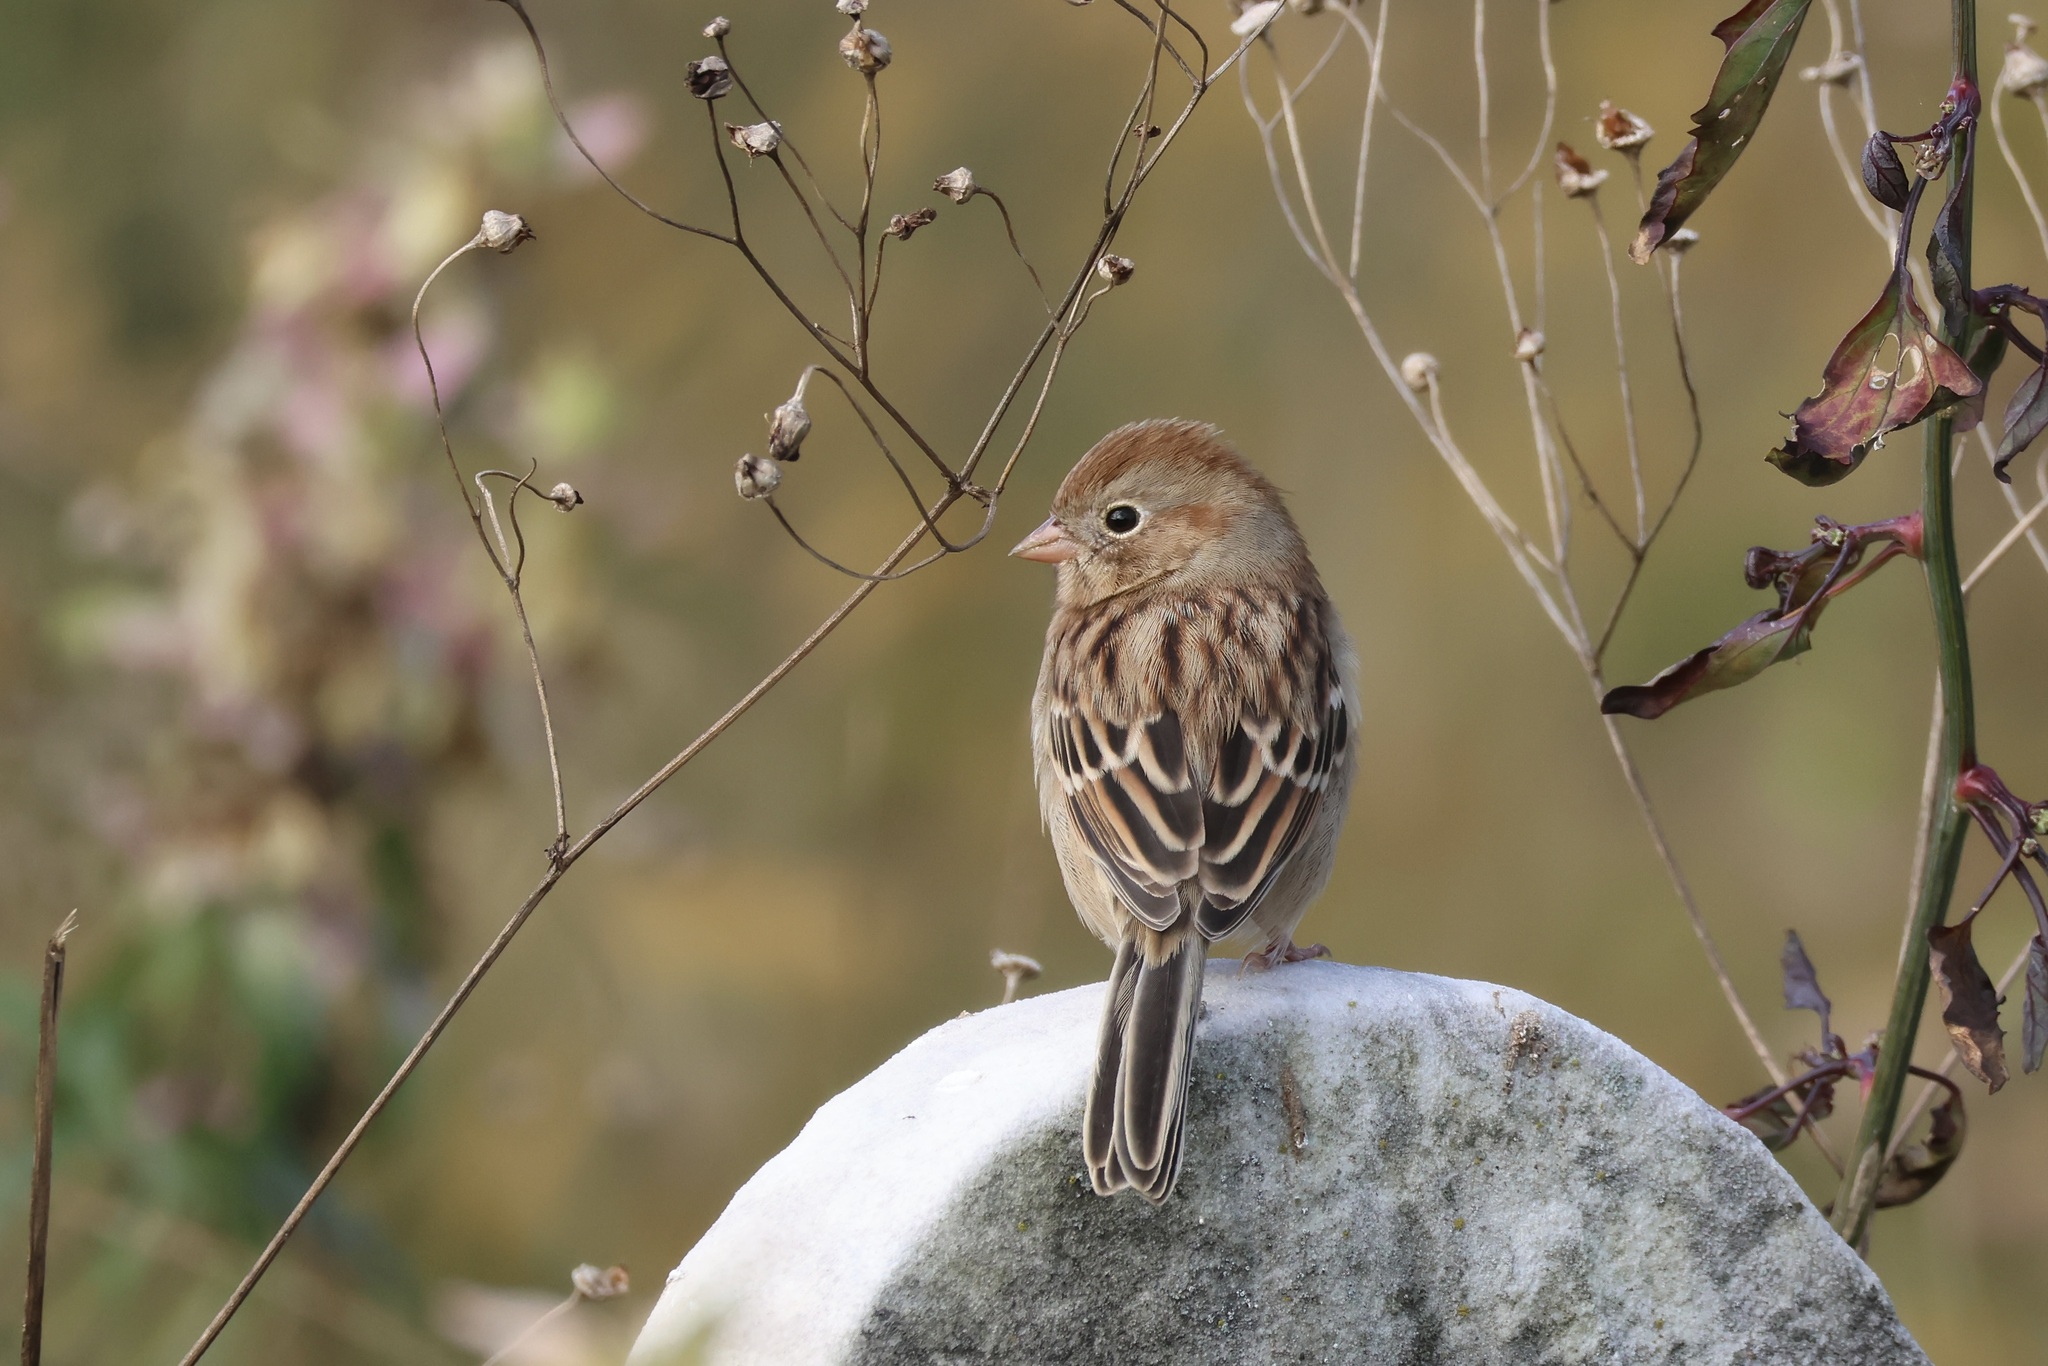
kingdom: Animalia
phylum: Chordata
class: Aves
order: Passeriformes
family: Passerellidae
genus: Spizella
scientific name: Spizella pusilla
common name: Field sparrow
